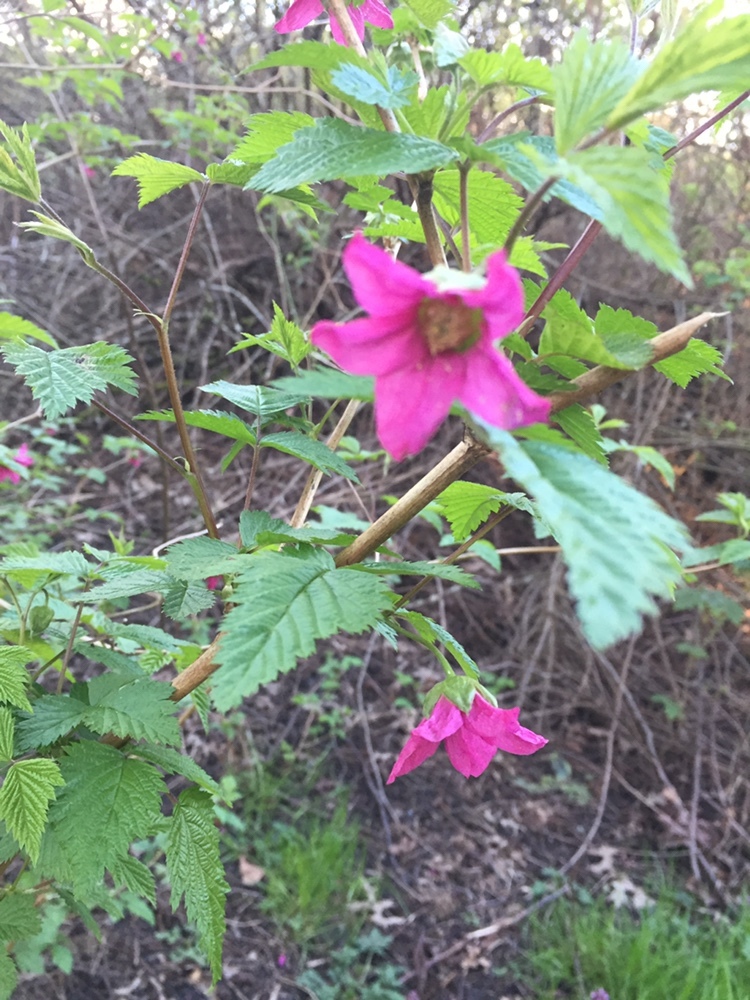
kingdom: Plantae
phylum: Tracheophyta
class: Magnoliopsida
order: Rosales
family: Rosaceae
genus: Rubus
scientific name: Rubus spectabilis
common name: Salmonberry
